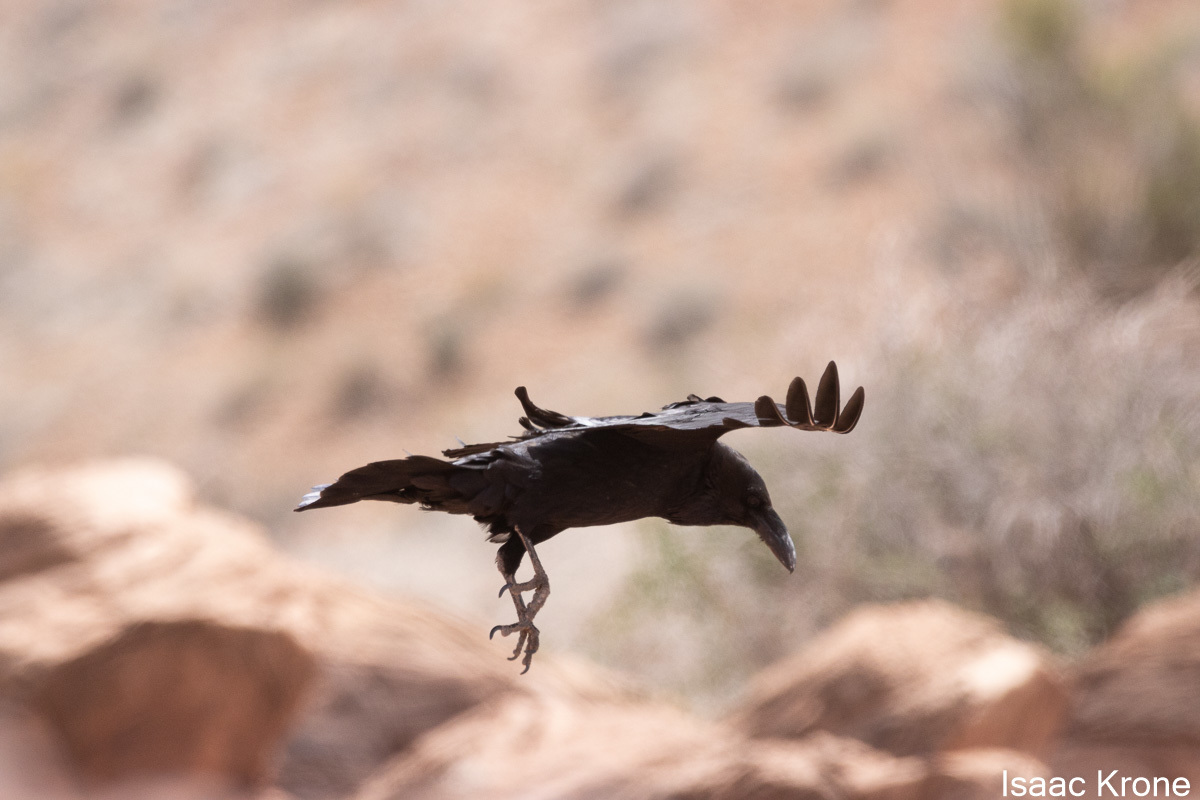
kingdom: Animalia
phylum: Chordata
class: Aves
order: Passeriformes
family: Corvidae
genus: Corvus
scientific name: Corvus corax
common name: Common raven
